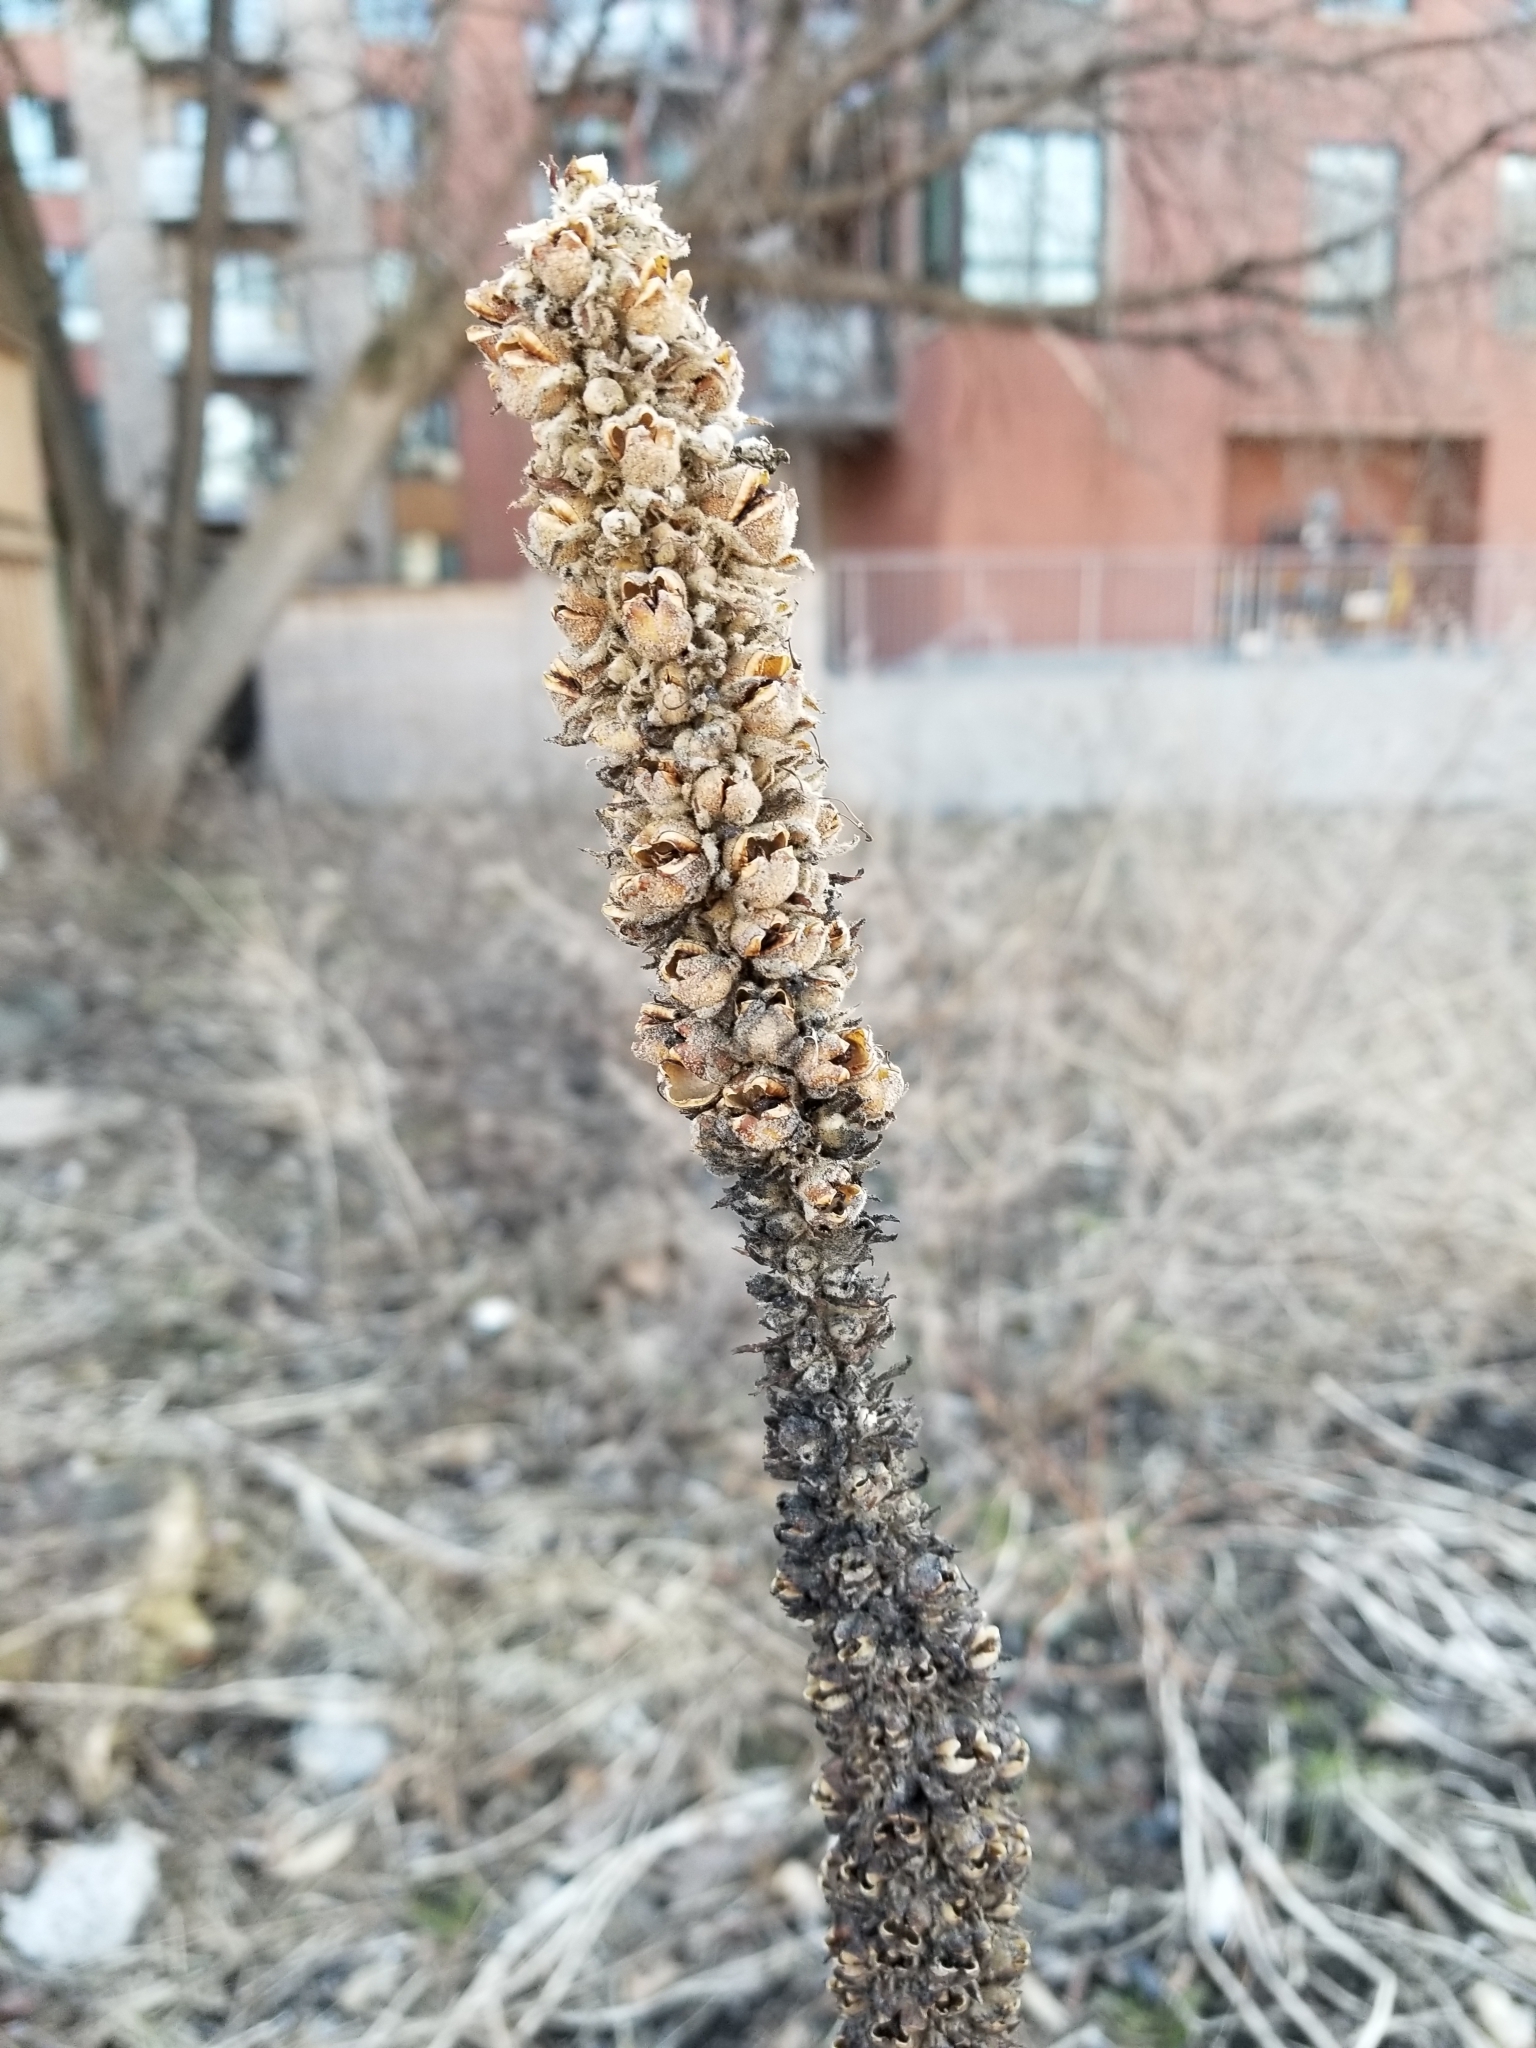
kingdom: Plantae
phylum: Tracheophyta
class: Magnoliopsida
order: Lamiales
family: Scrophulariaceae
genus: Verbascum
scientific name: Verbascum thapsus
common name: Common mullein
